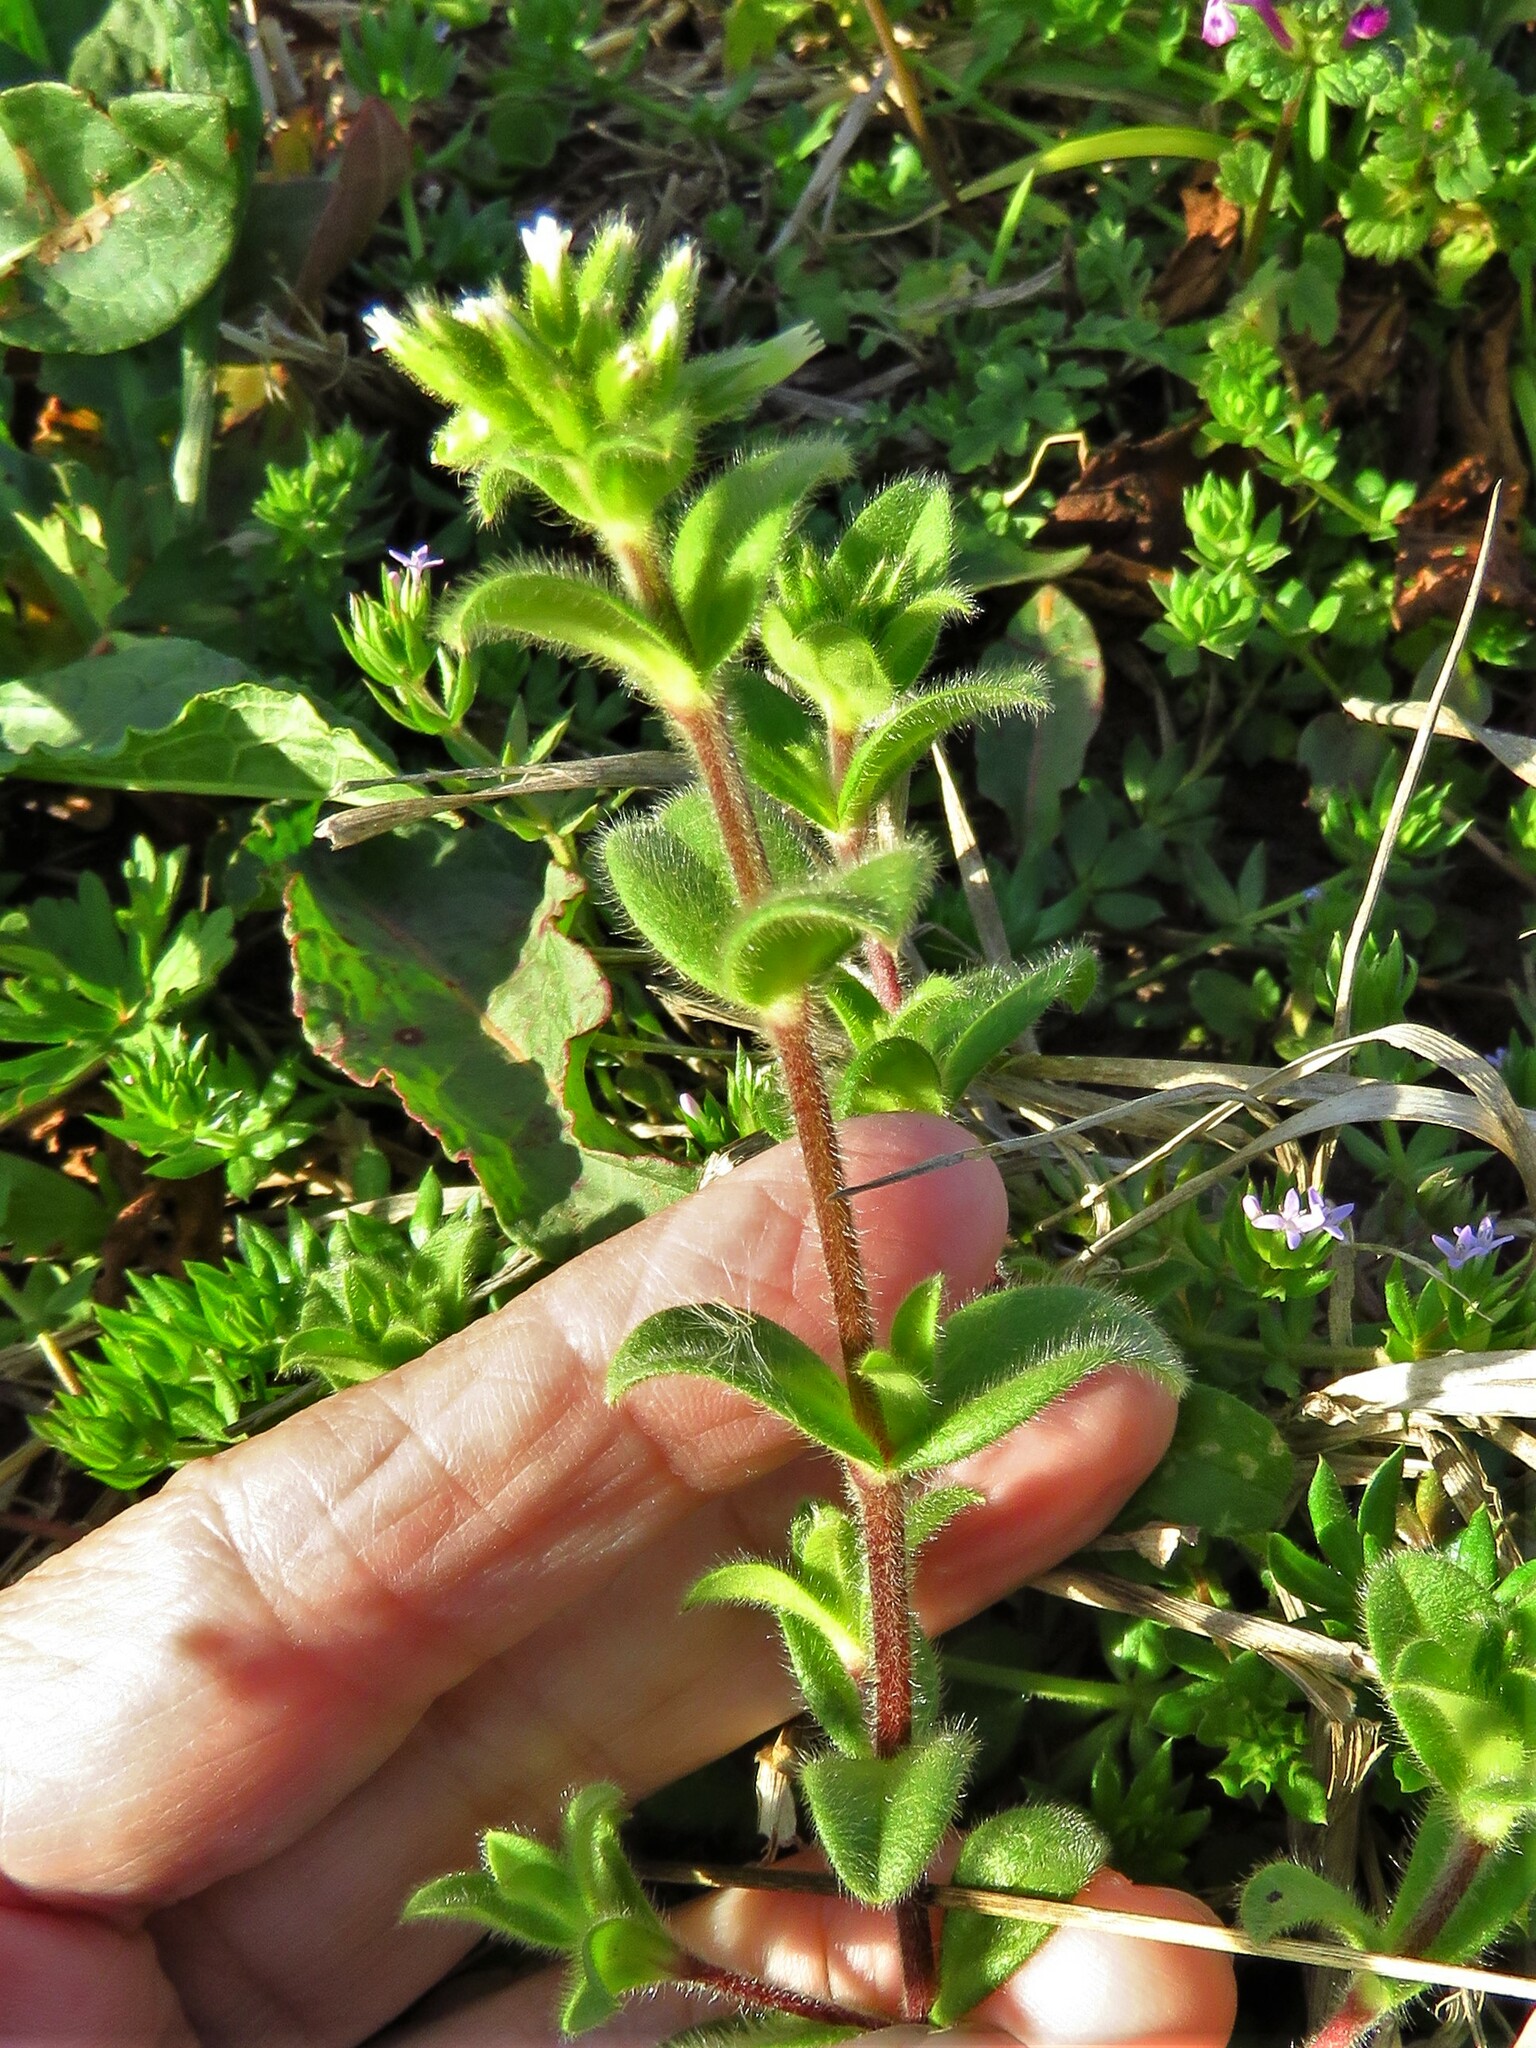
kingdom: Plantae
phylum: Tracheophyta
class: Magnoliopsida
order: Caryophyllales
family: Caryophyllaceae
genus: Cerastium
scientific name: Cerastium glomeratum
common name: Sticky chickweed
